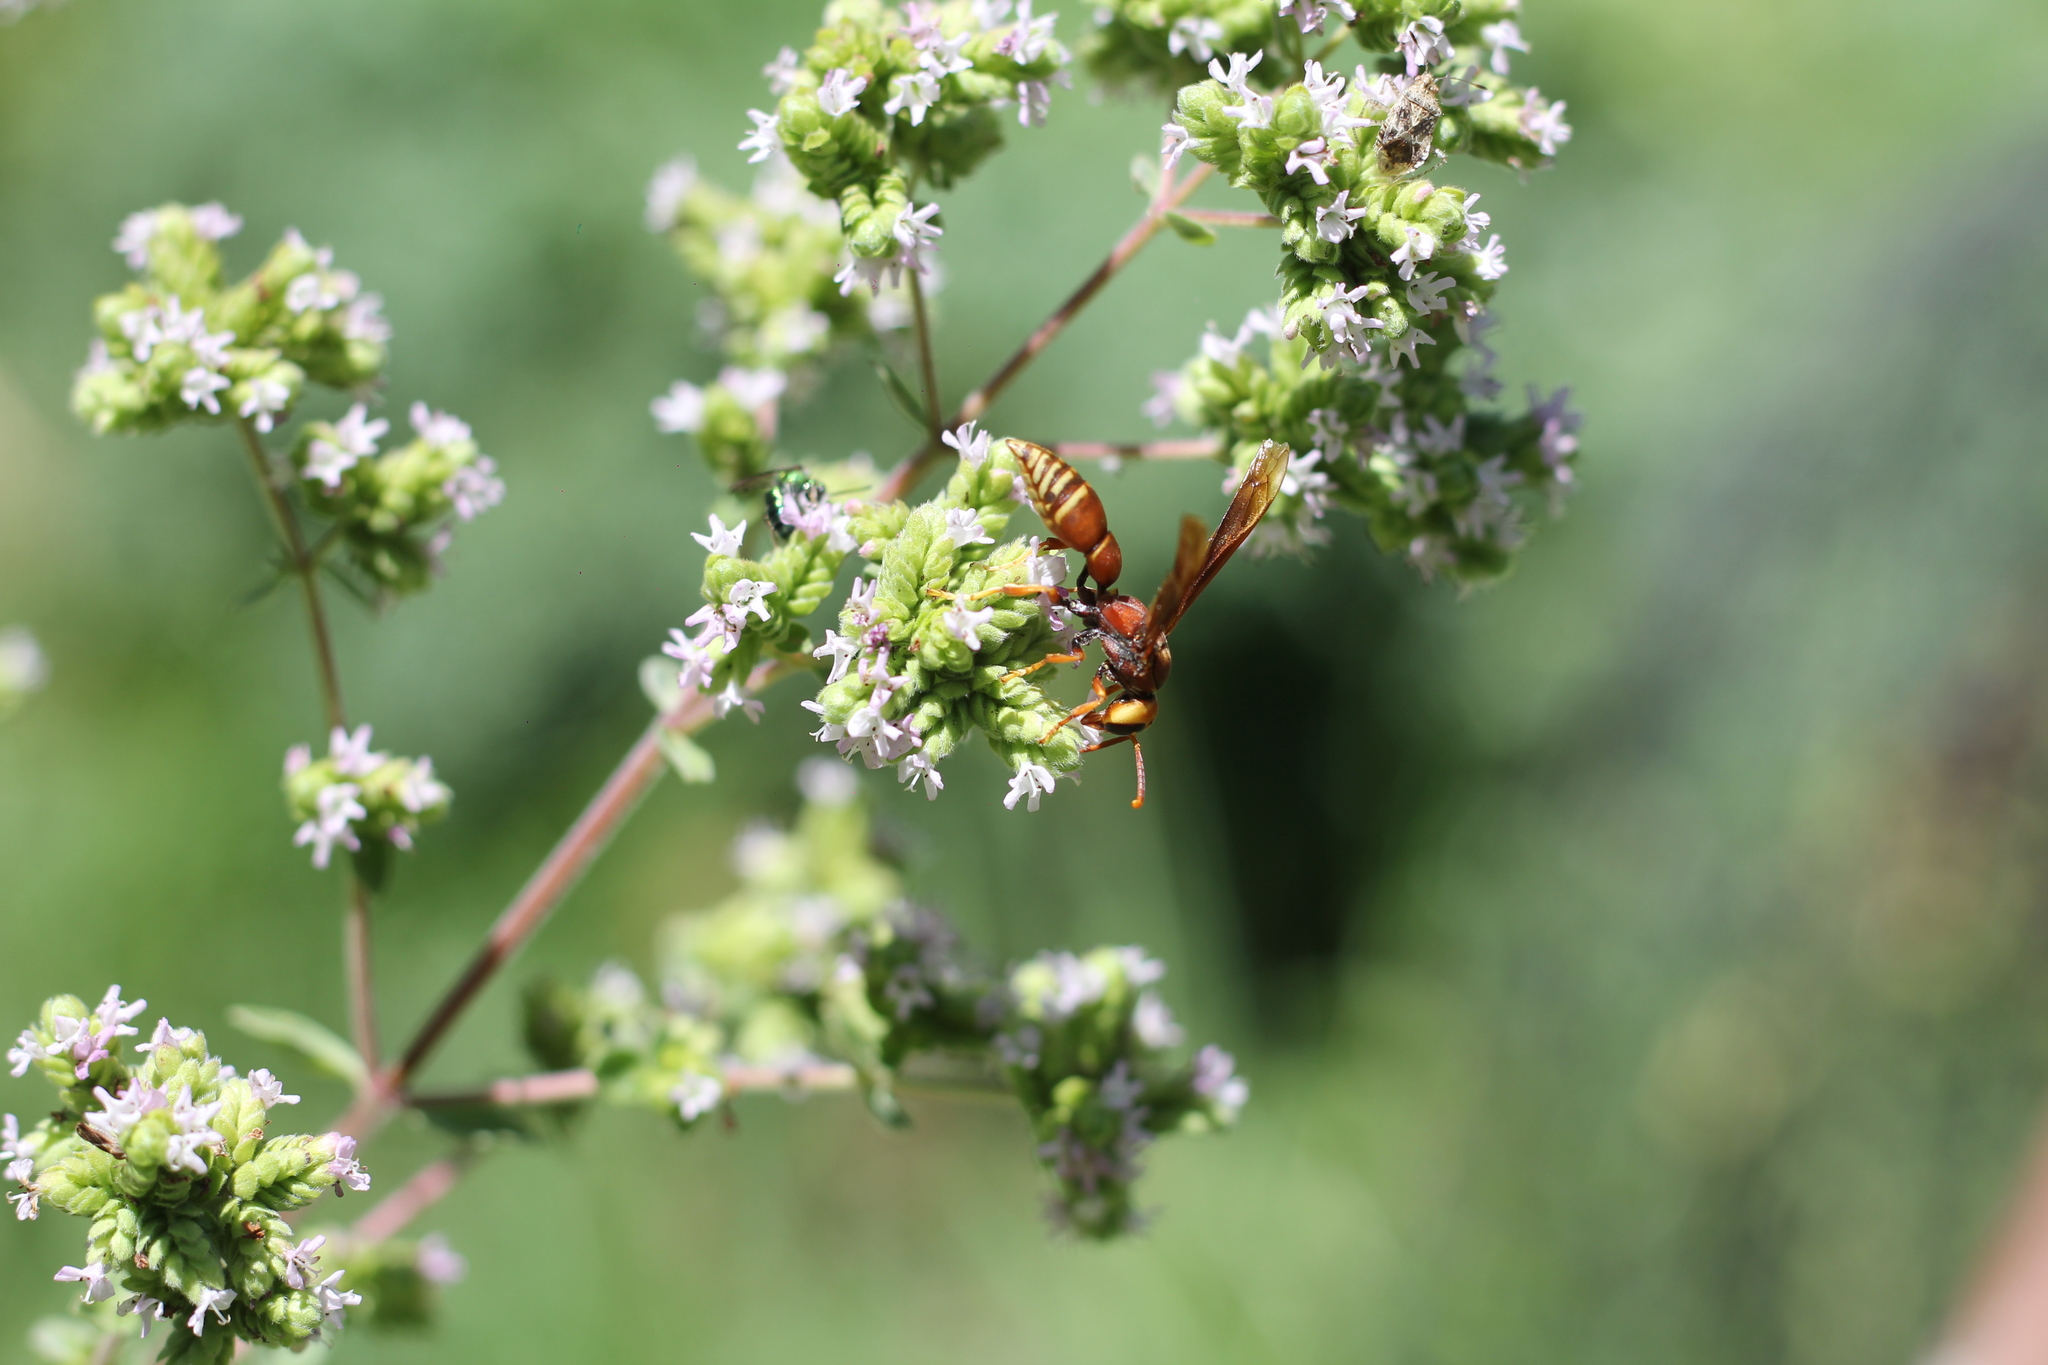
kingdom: Animalia
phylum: Arthropoda
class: Insecta
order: Hymenoptera
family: Eumenidae
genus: Montezumia
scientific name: Montezumia ferruginea
